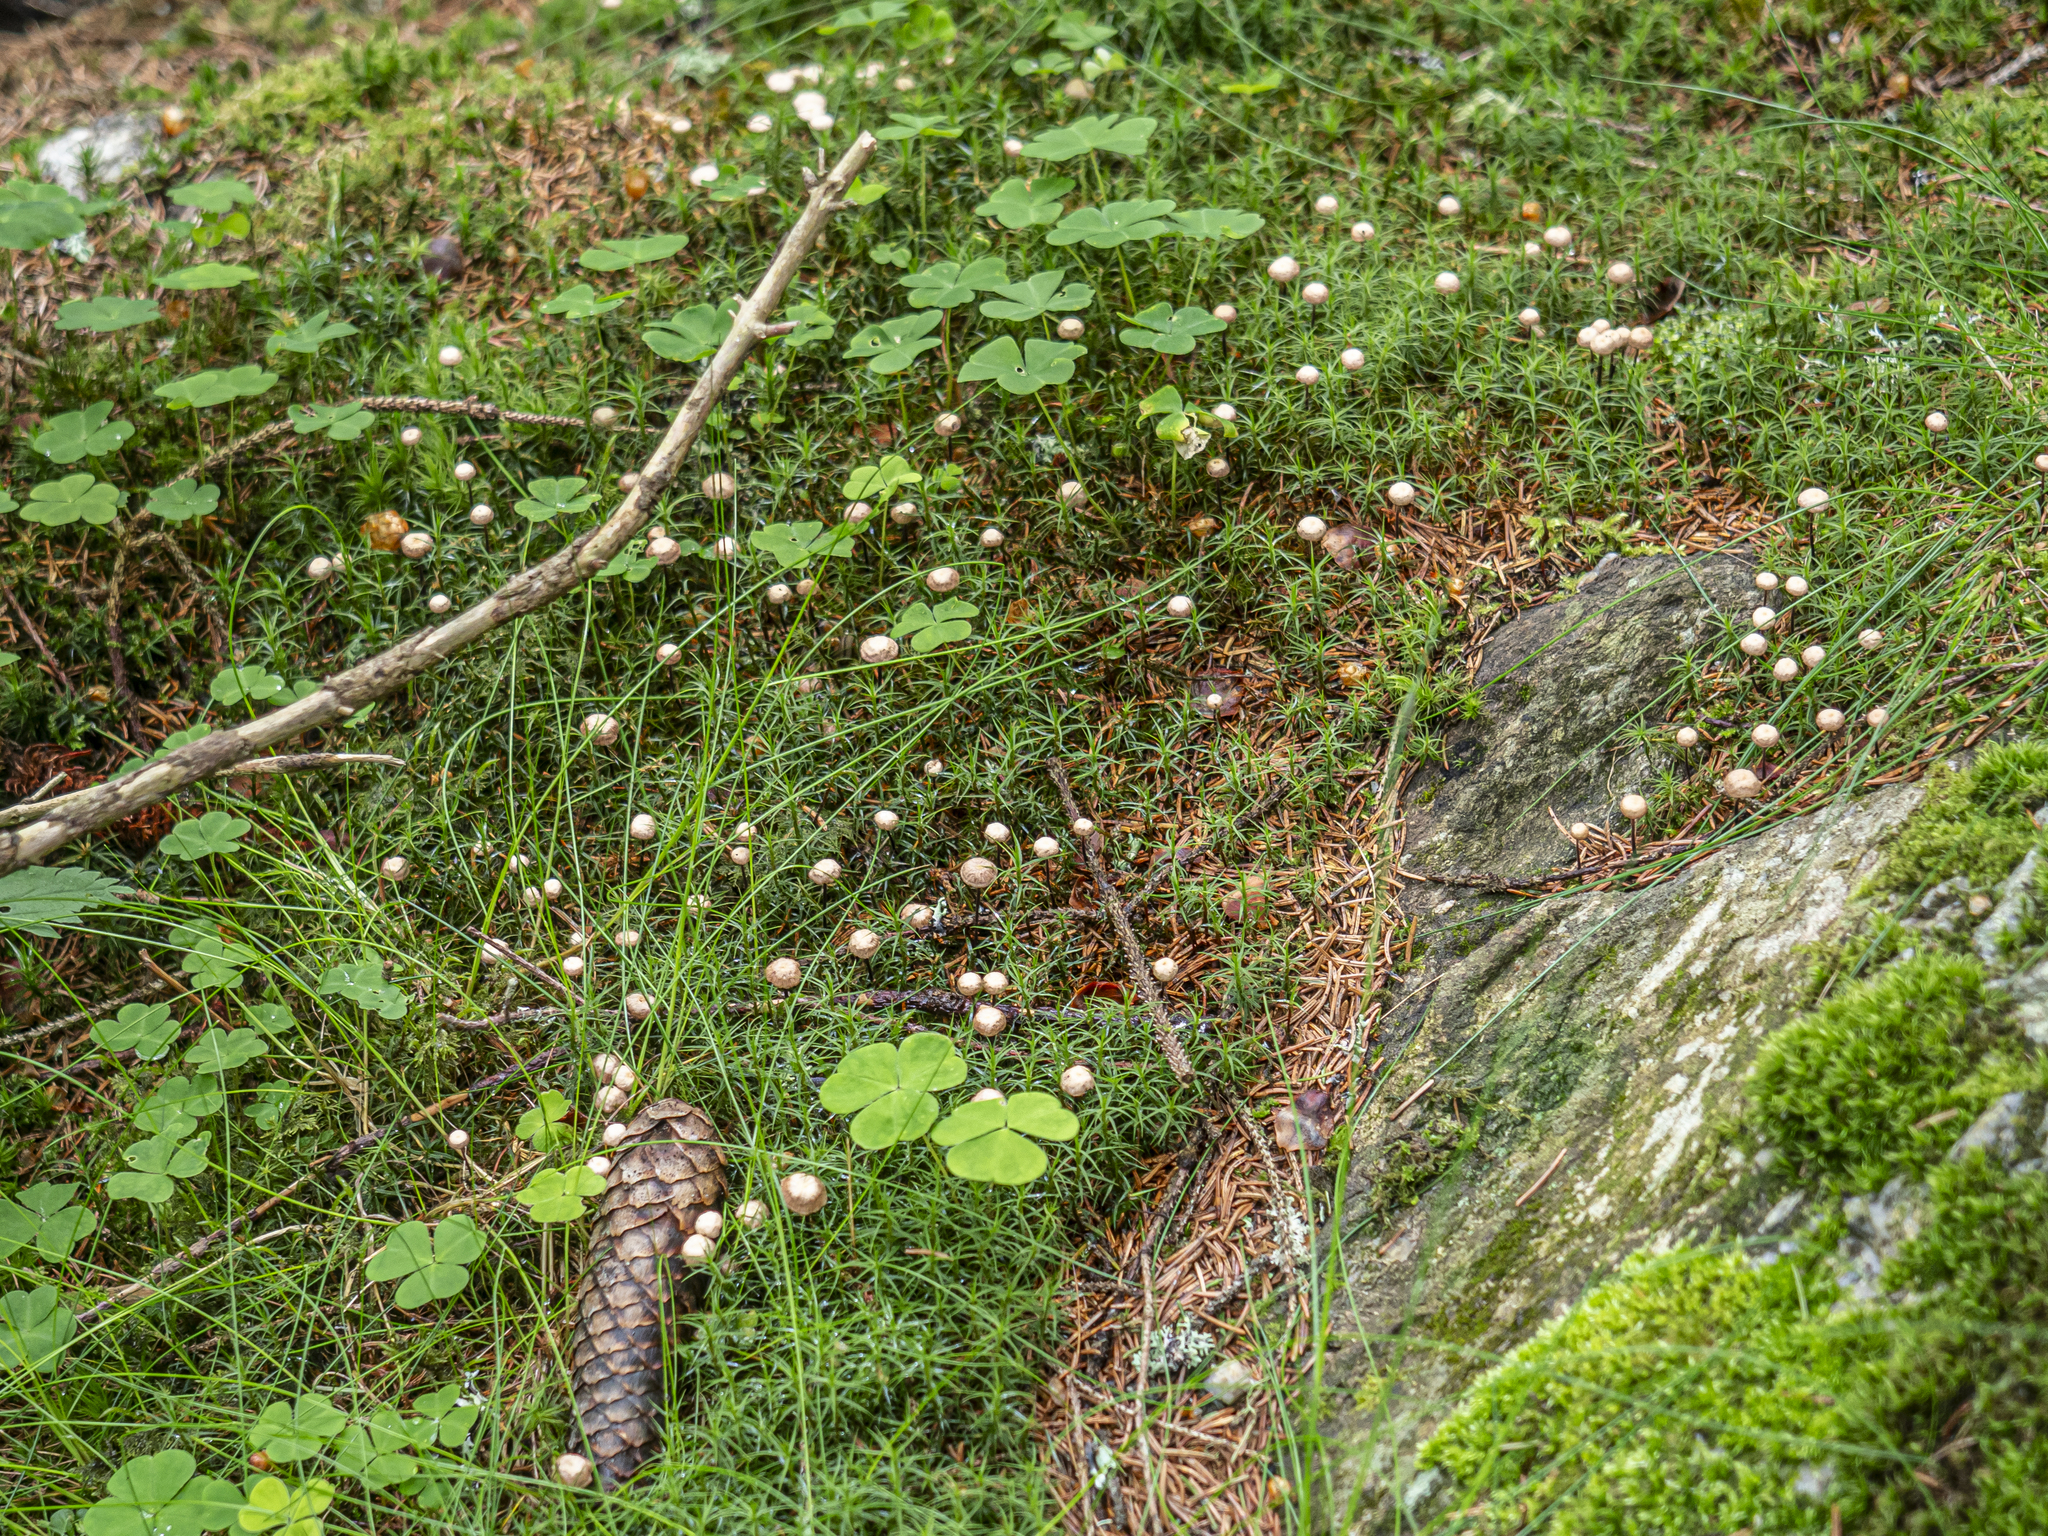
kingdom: Fungi
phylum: Basidiomycota
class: Agaricomycetes
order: Agaricales
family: Omphalotaceae
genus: Paragymnopus
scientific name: Paragymnopus perforans
